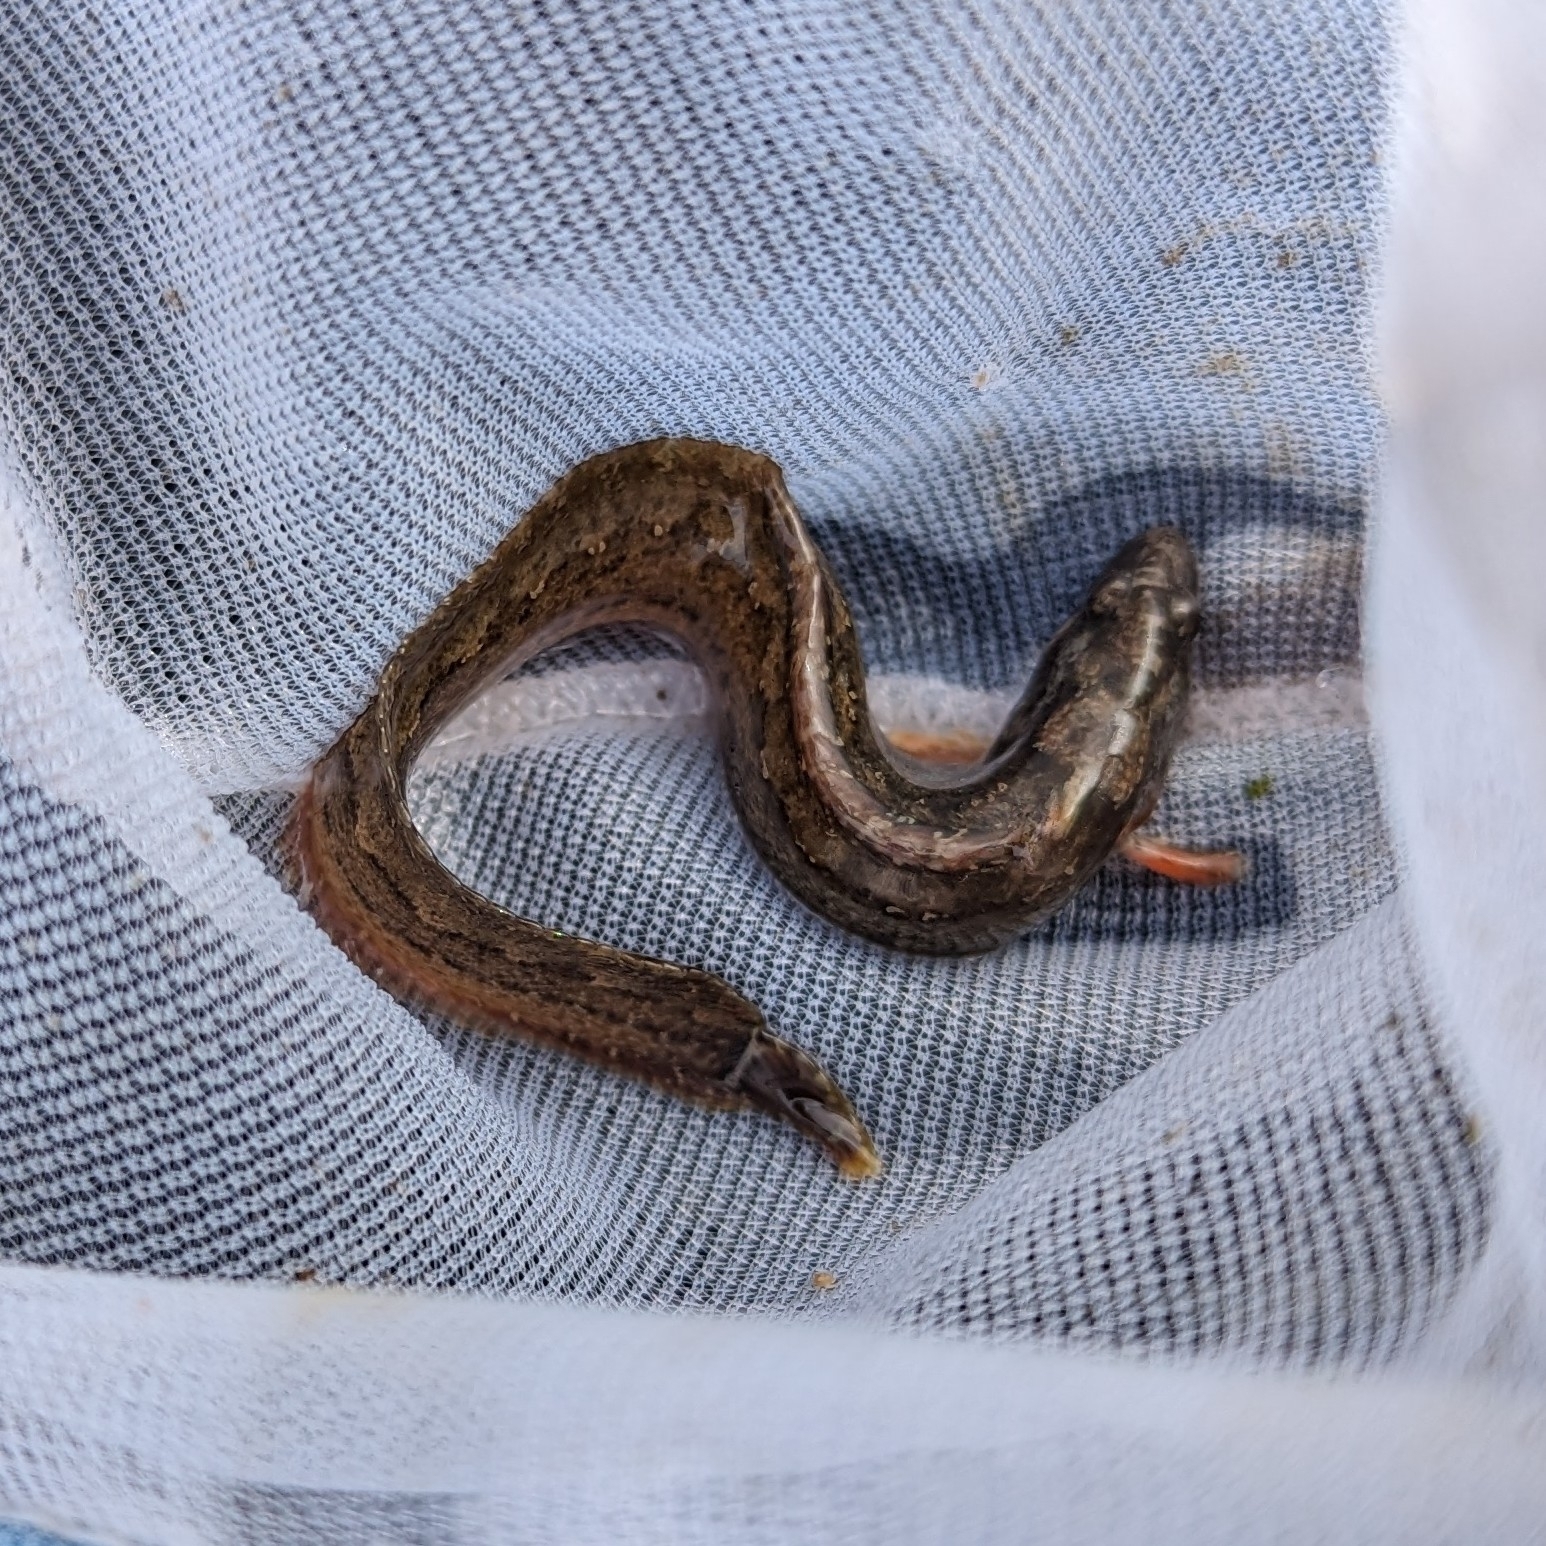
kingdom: Animalia
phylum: Chordata
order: Perciformes
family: Stichaeidae
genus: Anoplarchus
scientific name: Anoplarchus purpurescens
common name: High cockscomb
